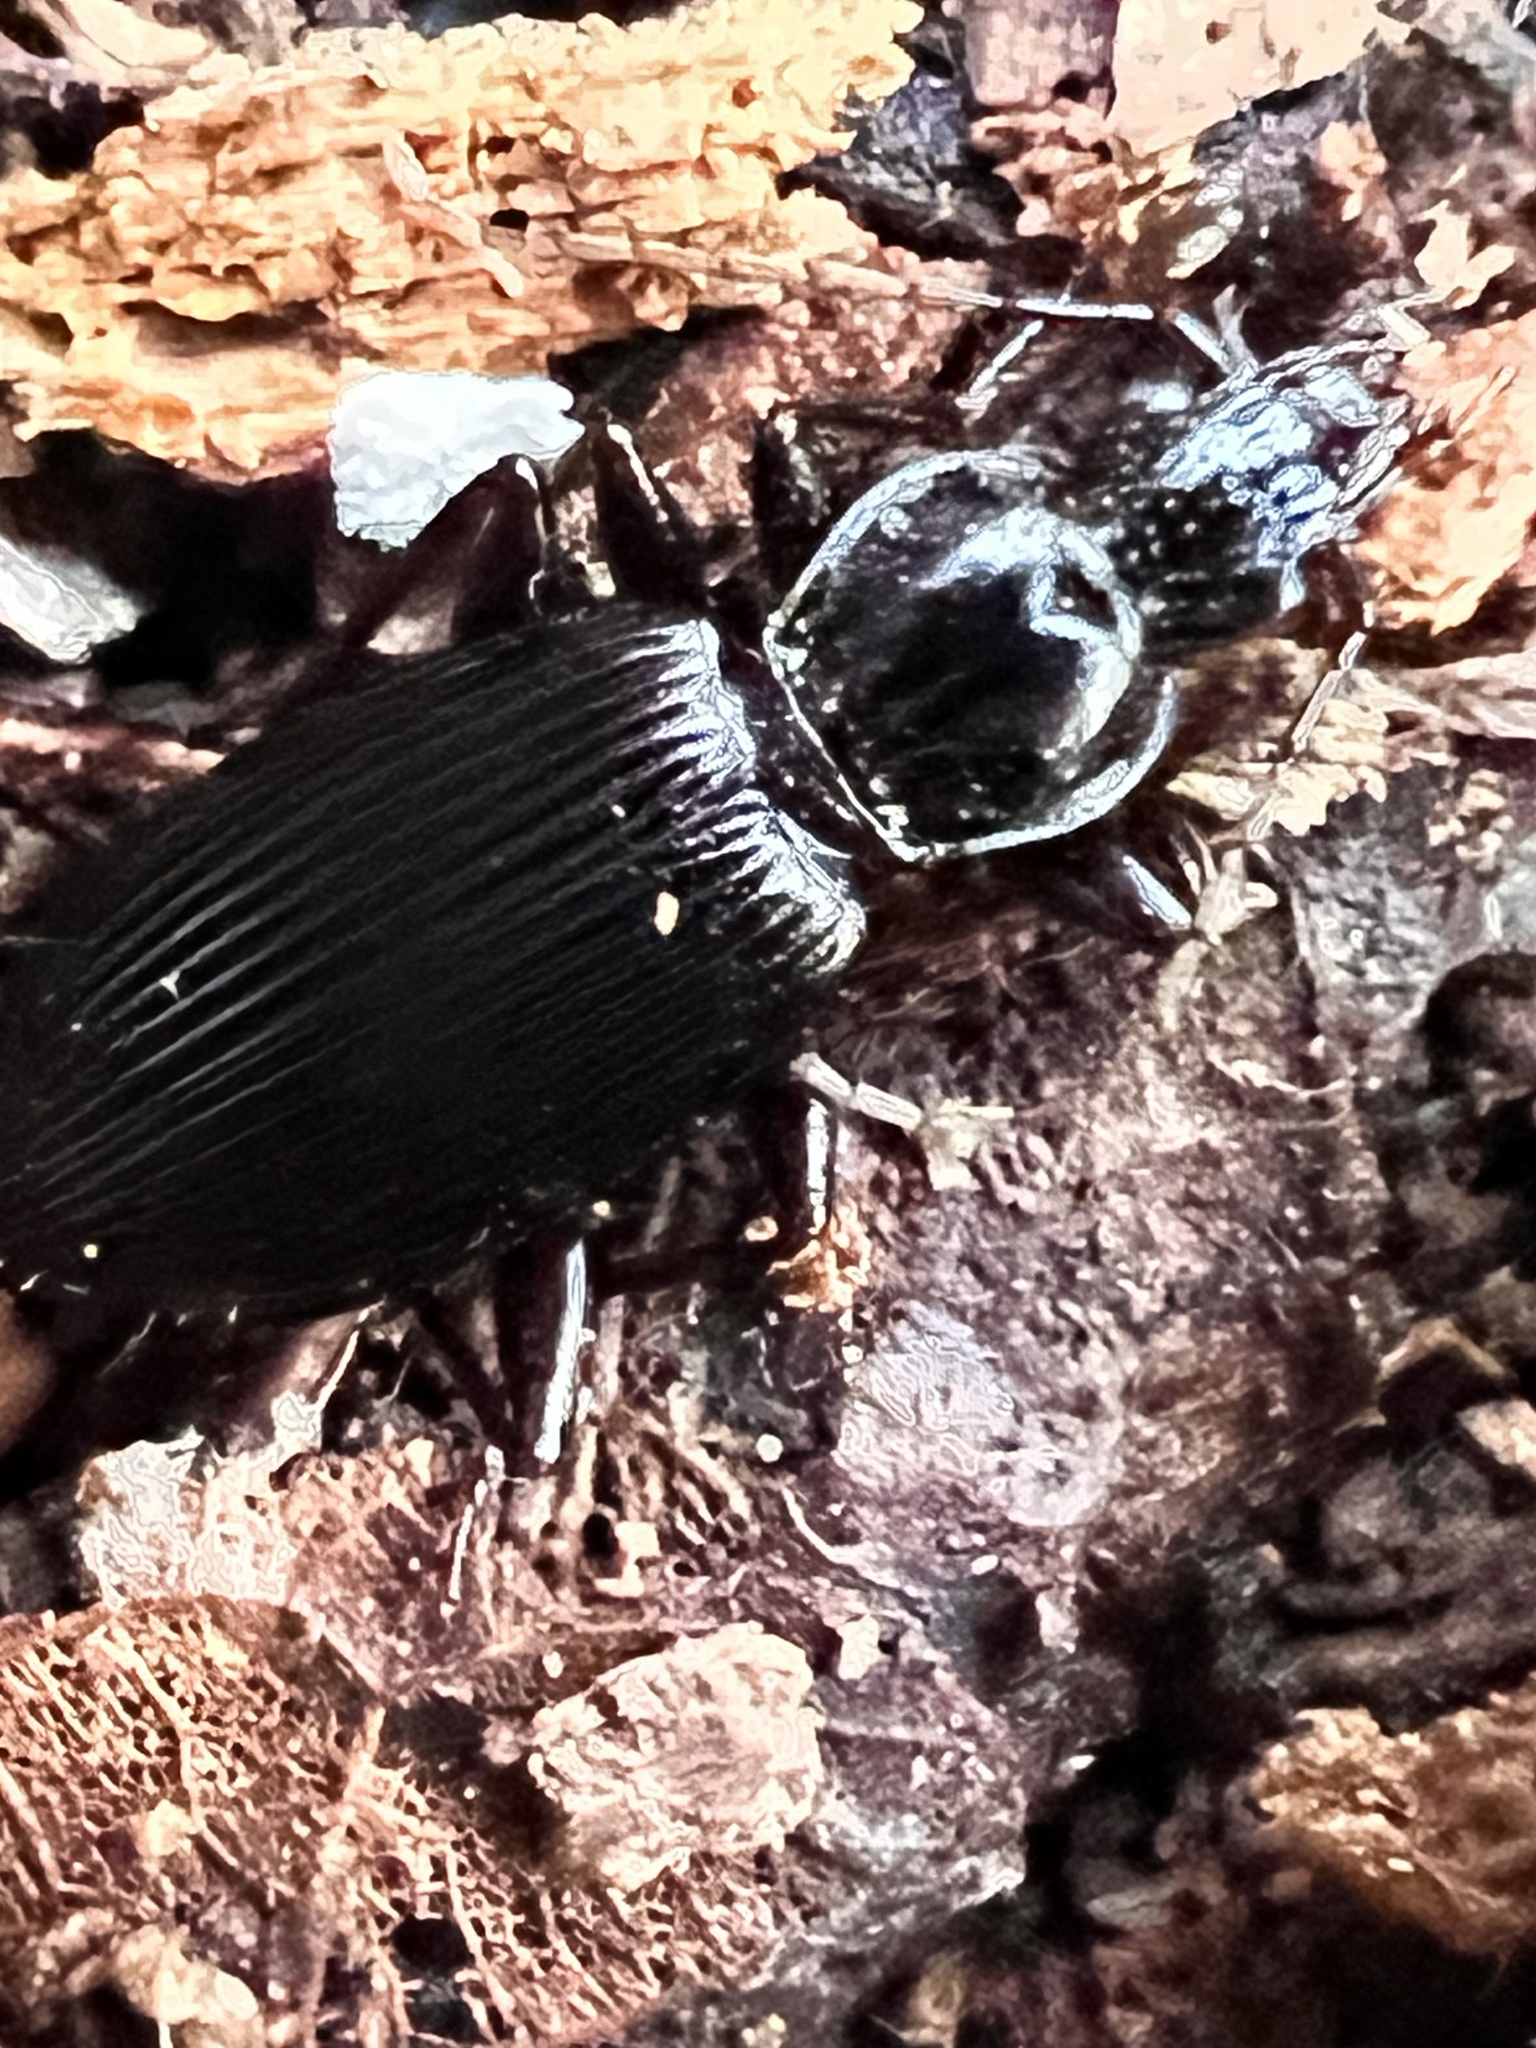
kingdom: Animalia
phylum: Arthropoda
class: Insecta
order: Coleoptera
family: Carabidae
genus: Platynus
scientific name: Platynus decentis
